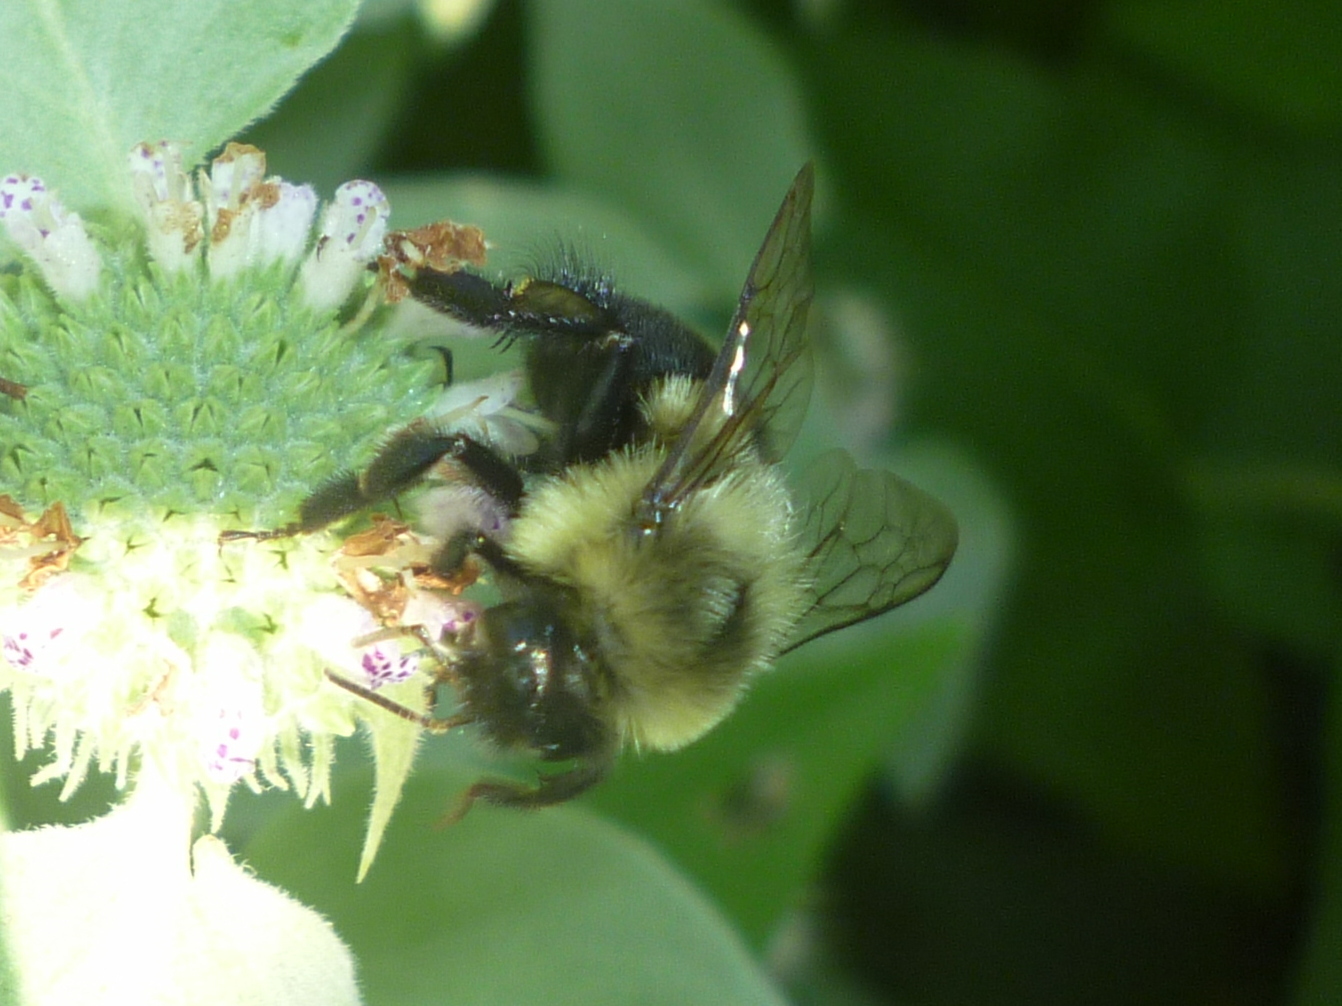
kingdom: Animalia
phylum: Arthropoda
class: Insecta
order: Hymenoptera
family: Apidae
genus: Bombus
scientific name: Bombus impatiens
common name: Common eastern bumble bee
